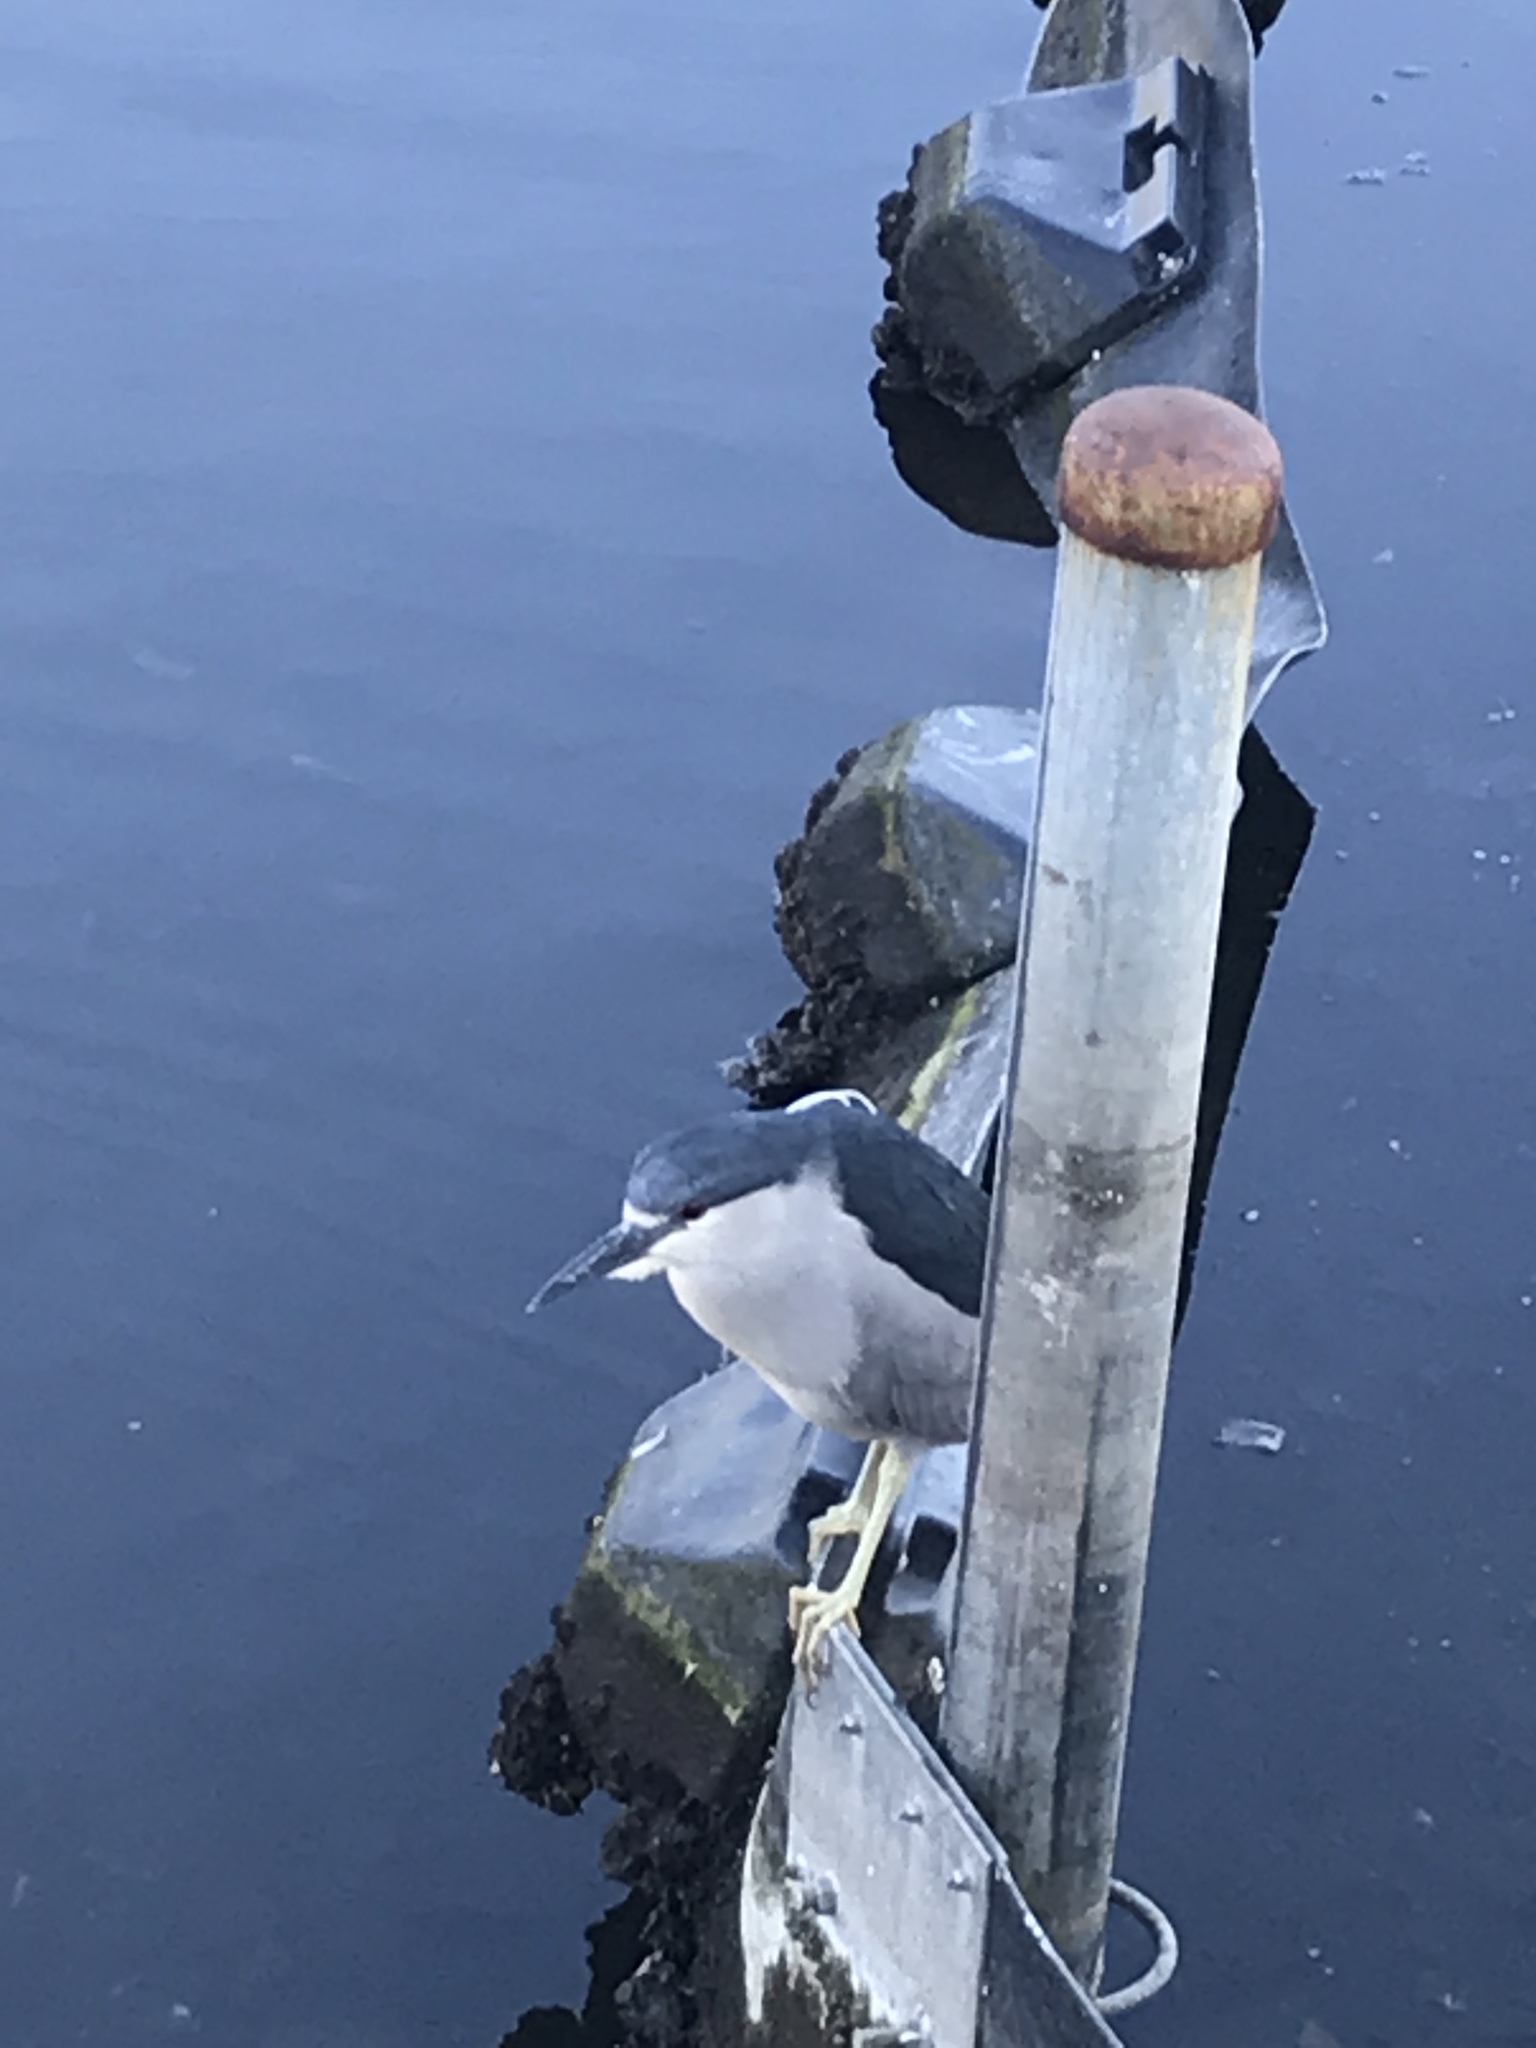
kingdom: Animalia
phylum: Chordata
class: Aves
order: Pelecaniformes
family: Ardeidae
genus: Nycticorax
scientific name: Nycticorax nycticorax
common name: Black-crowned night heron
